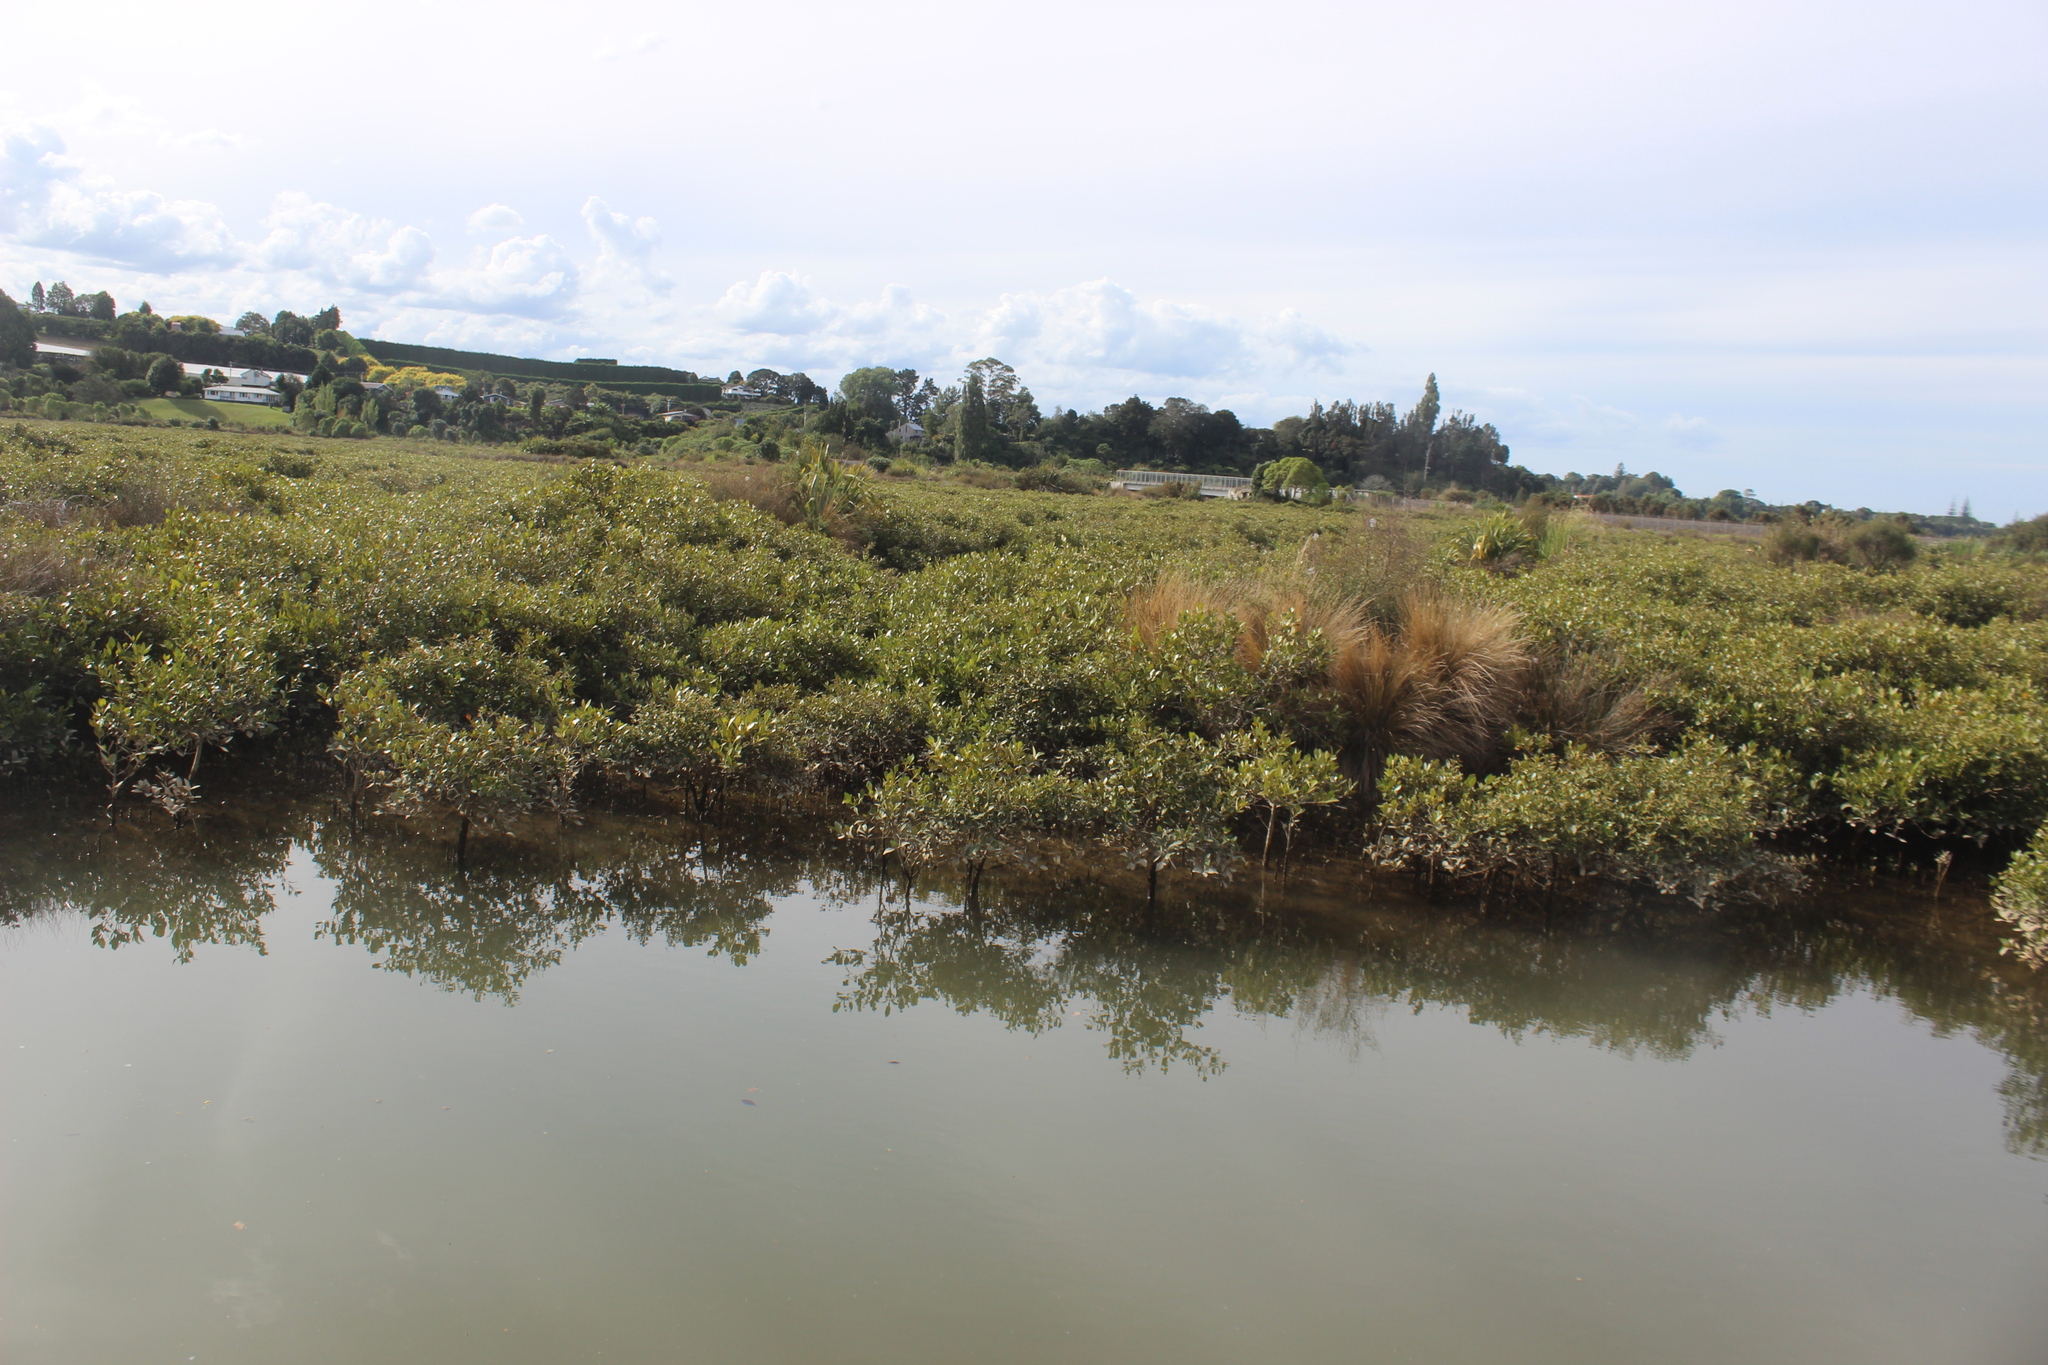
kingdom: Plantae
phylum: Tracheophyta
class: Magnoliopsida
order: Lamiales
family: Acanthaceae
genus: Avicennia
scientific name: Avicennia marina
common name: Gray mangrove
